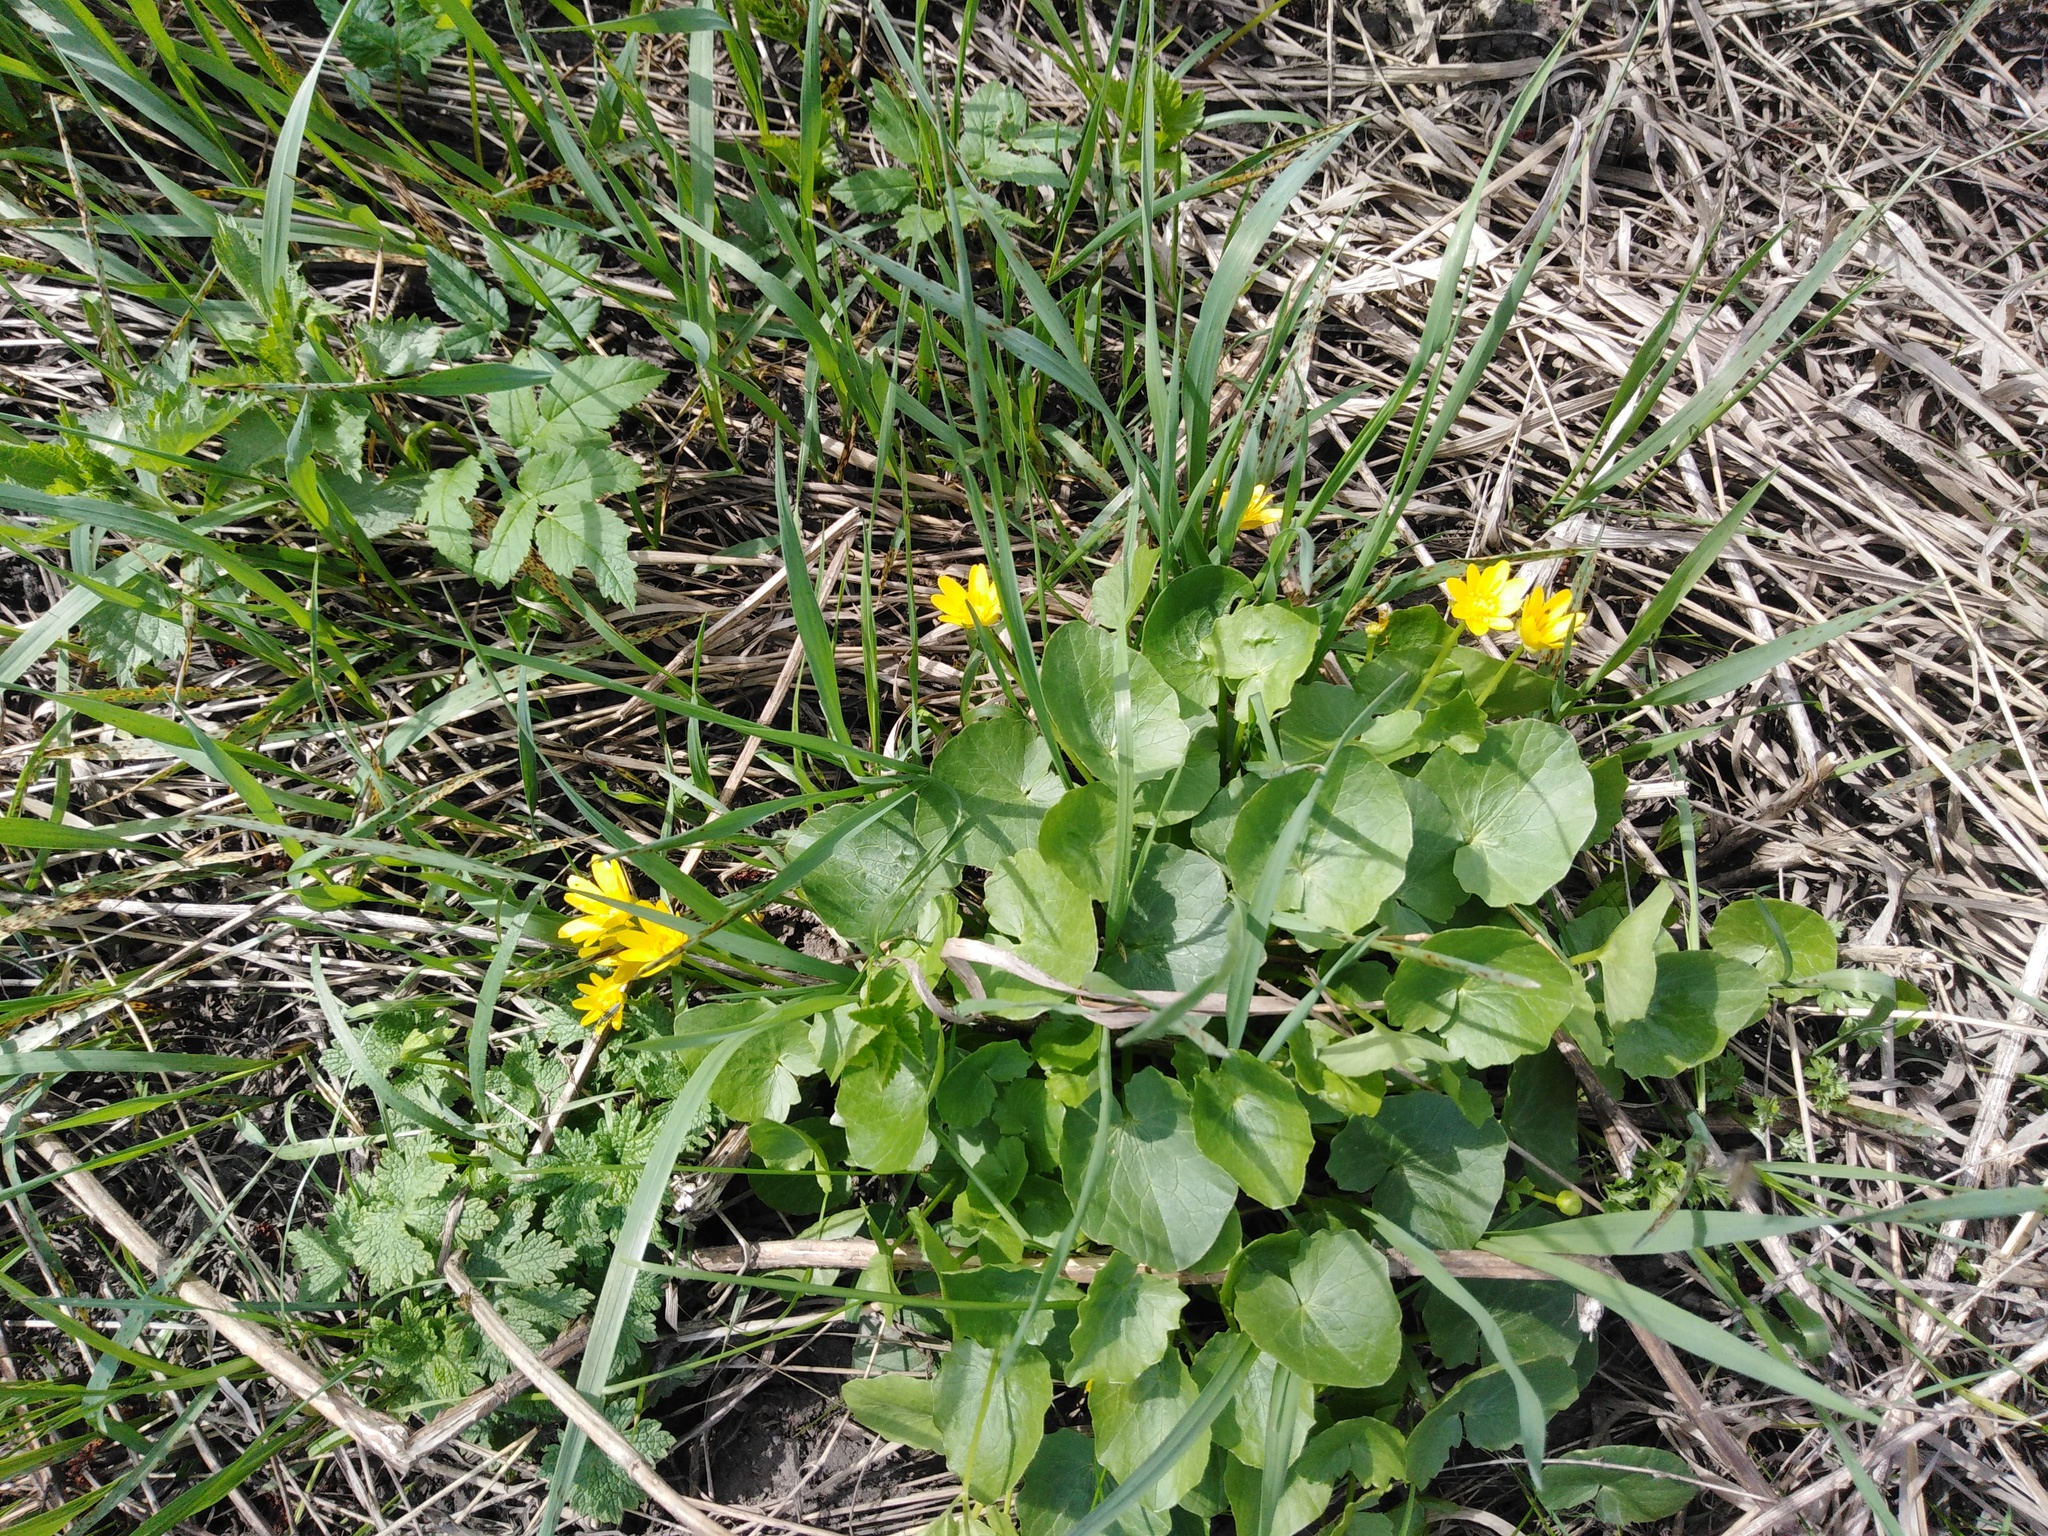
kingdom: Plantae
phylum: Tracheophyta
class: Magnoliopsida
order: Ranunculales
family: Ranunculaceae
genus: Ficaria
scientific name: Ficaria verna
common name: Lesser celandine
